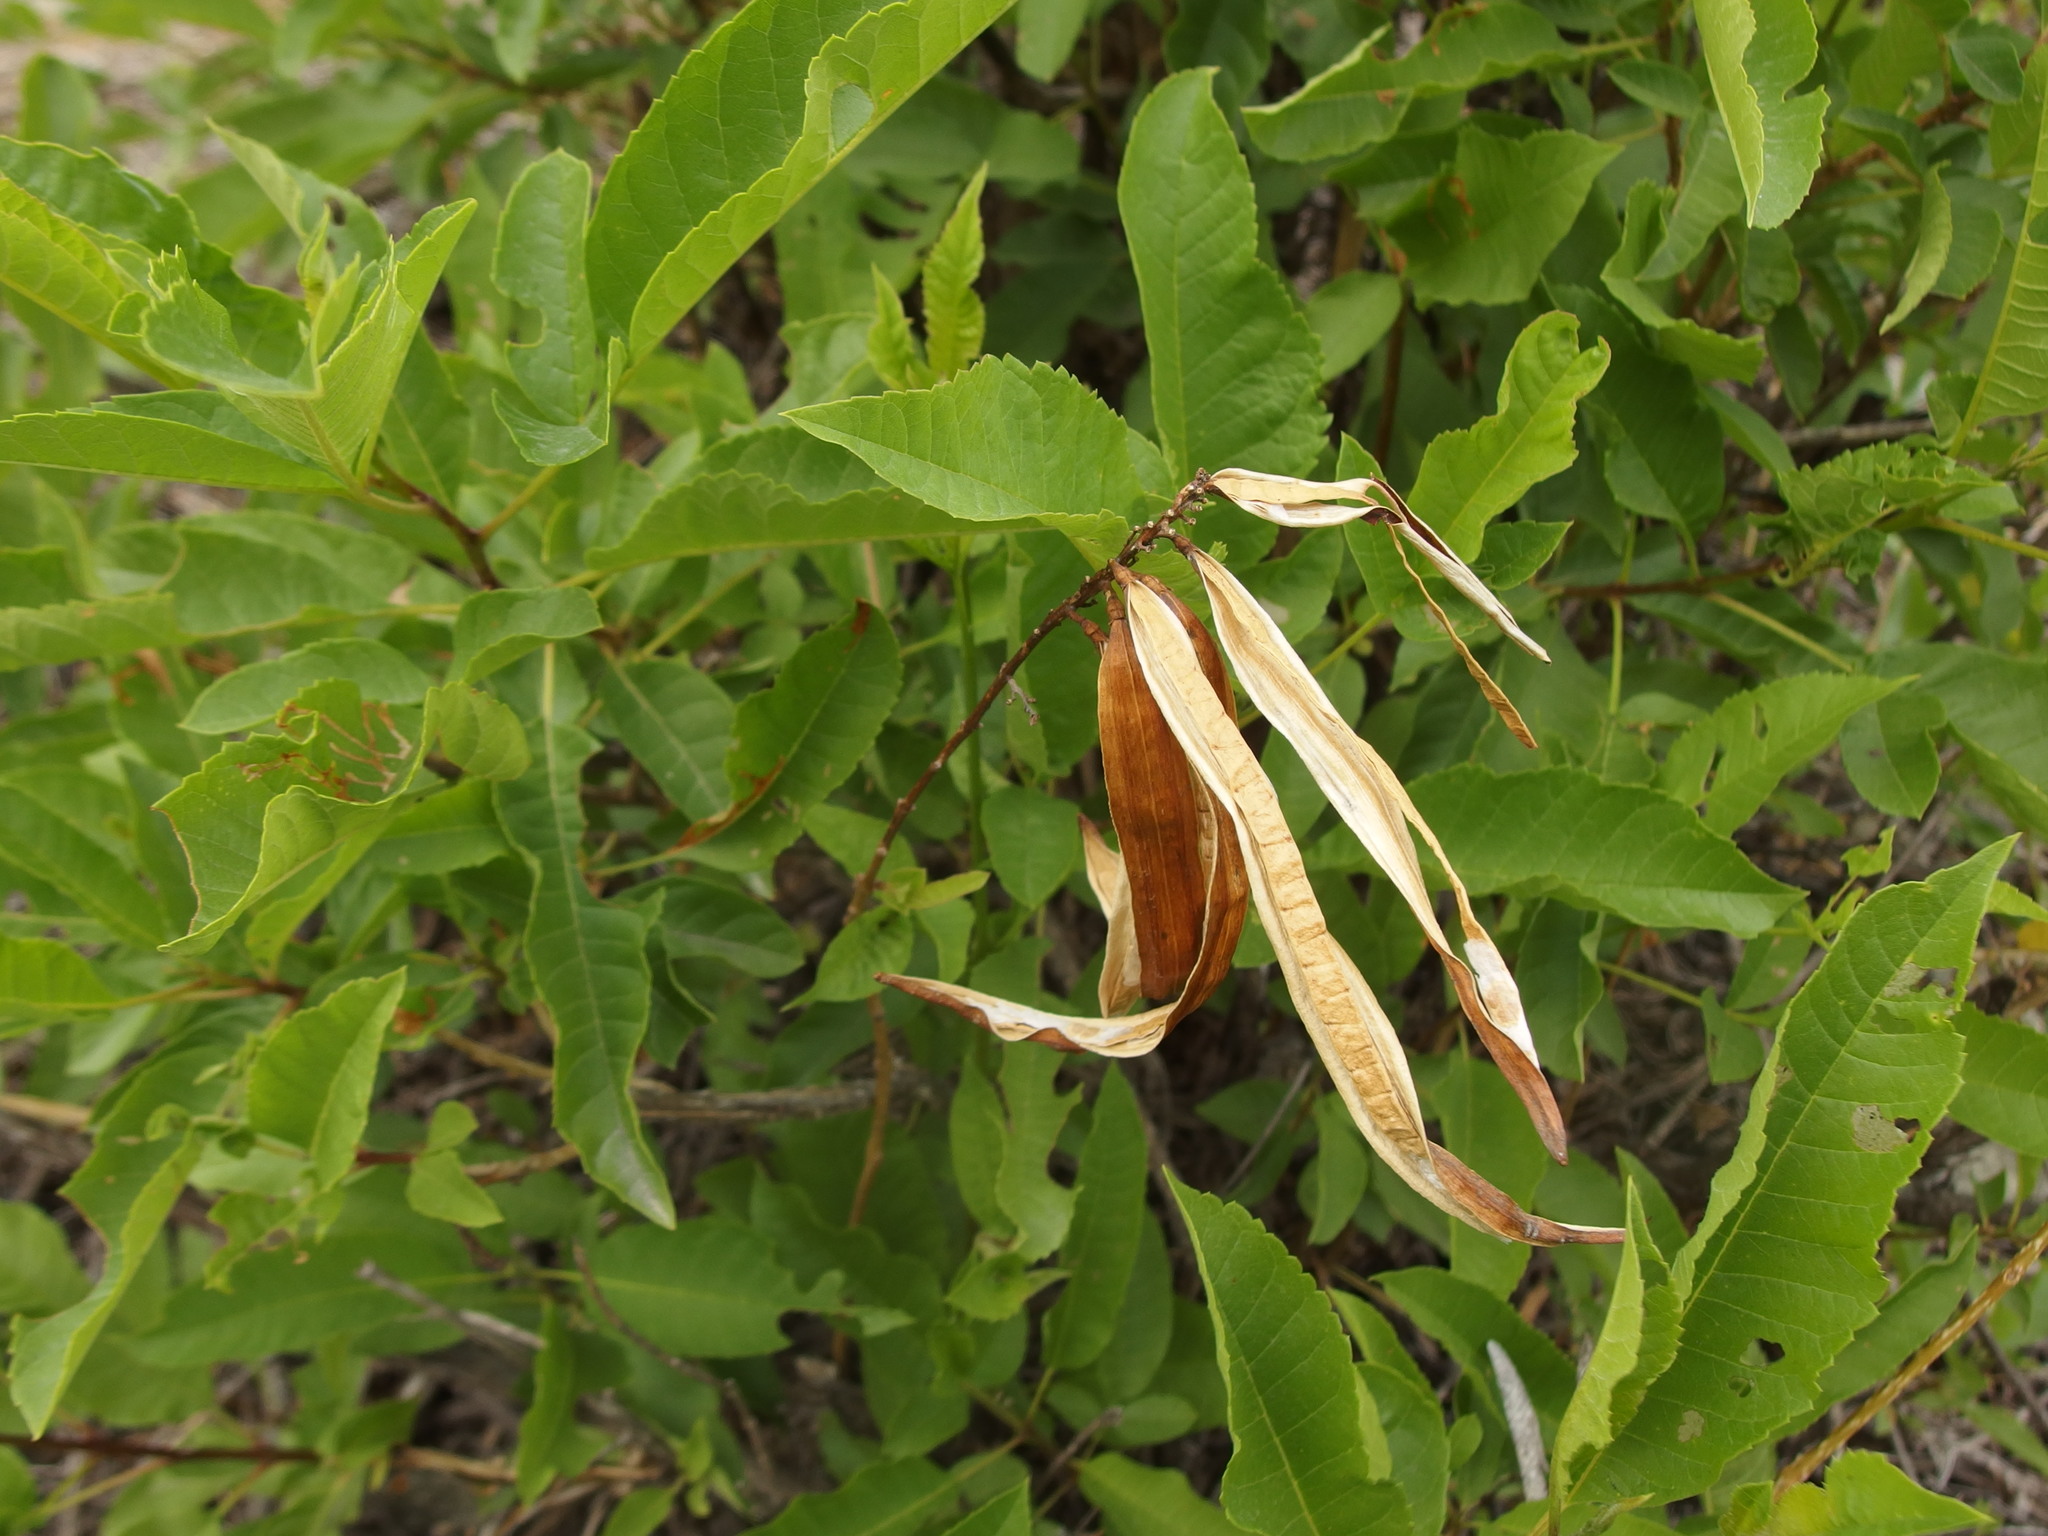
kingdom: Plantae
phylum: Tracheophyta
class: Magnoliopsida
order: Lamiales
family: Bignoniaceae
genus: Tecoma
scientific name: Tecoma weberbaueriana
